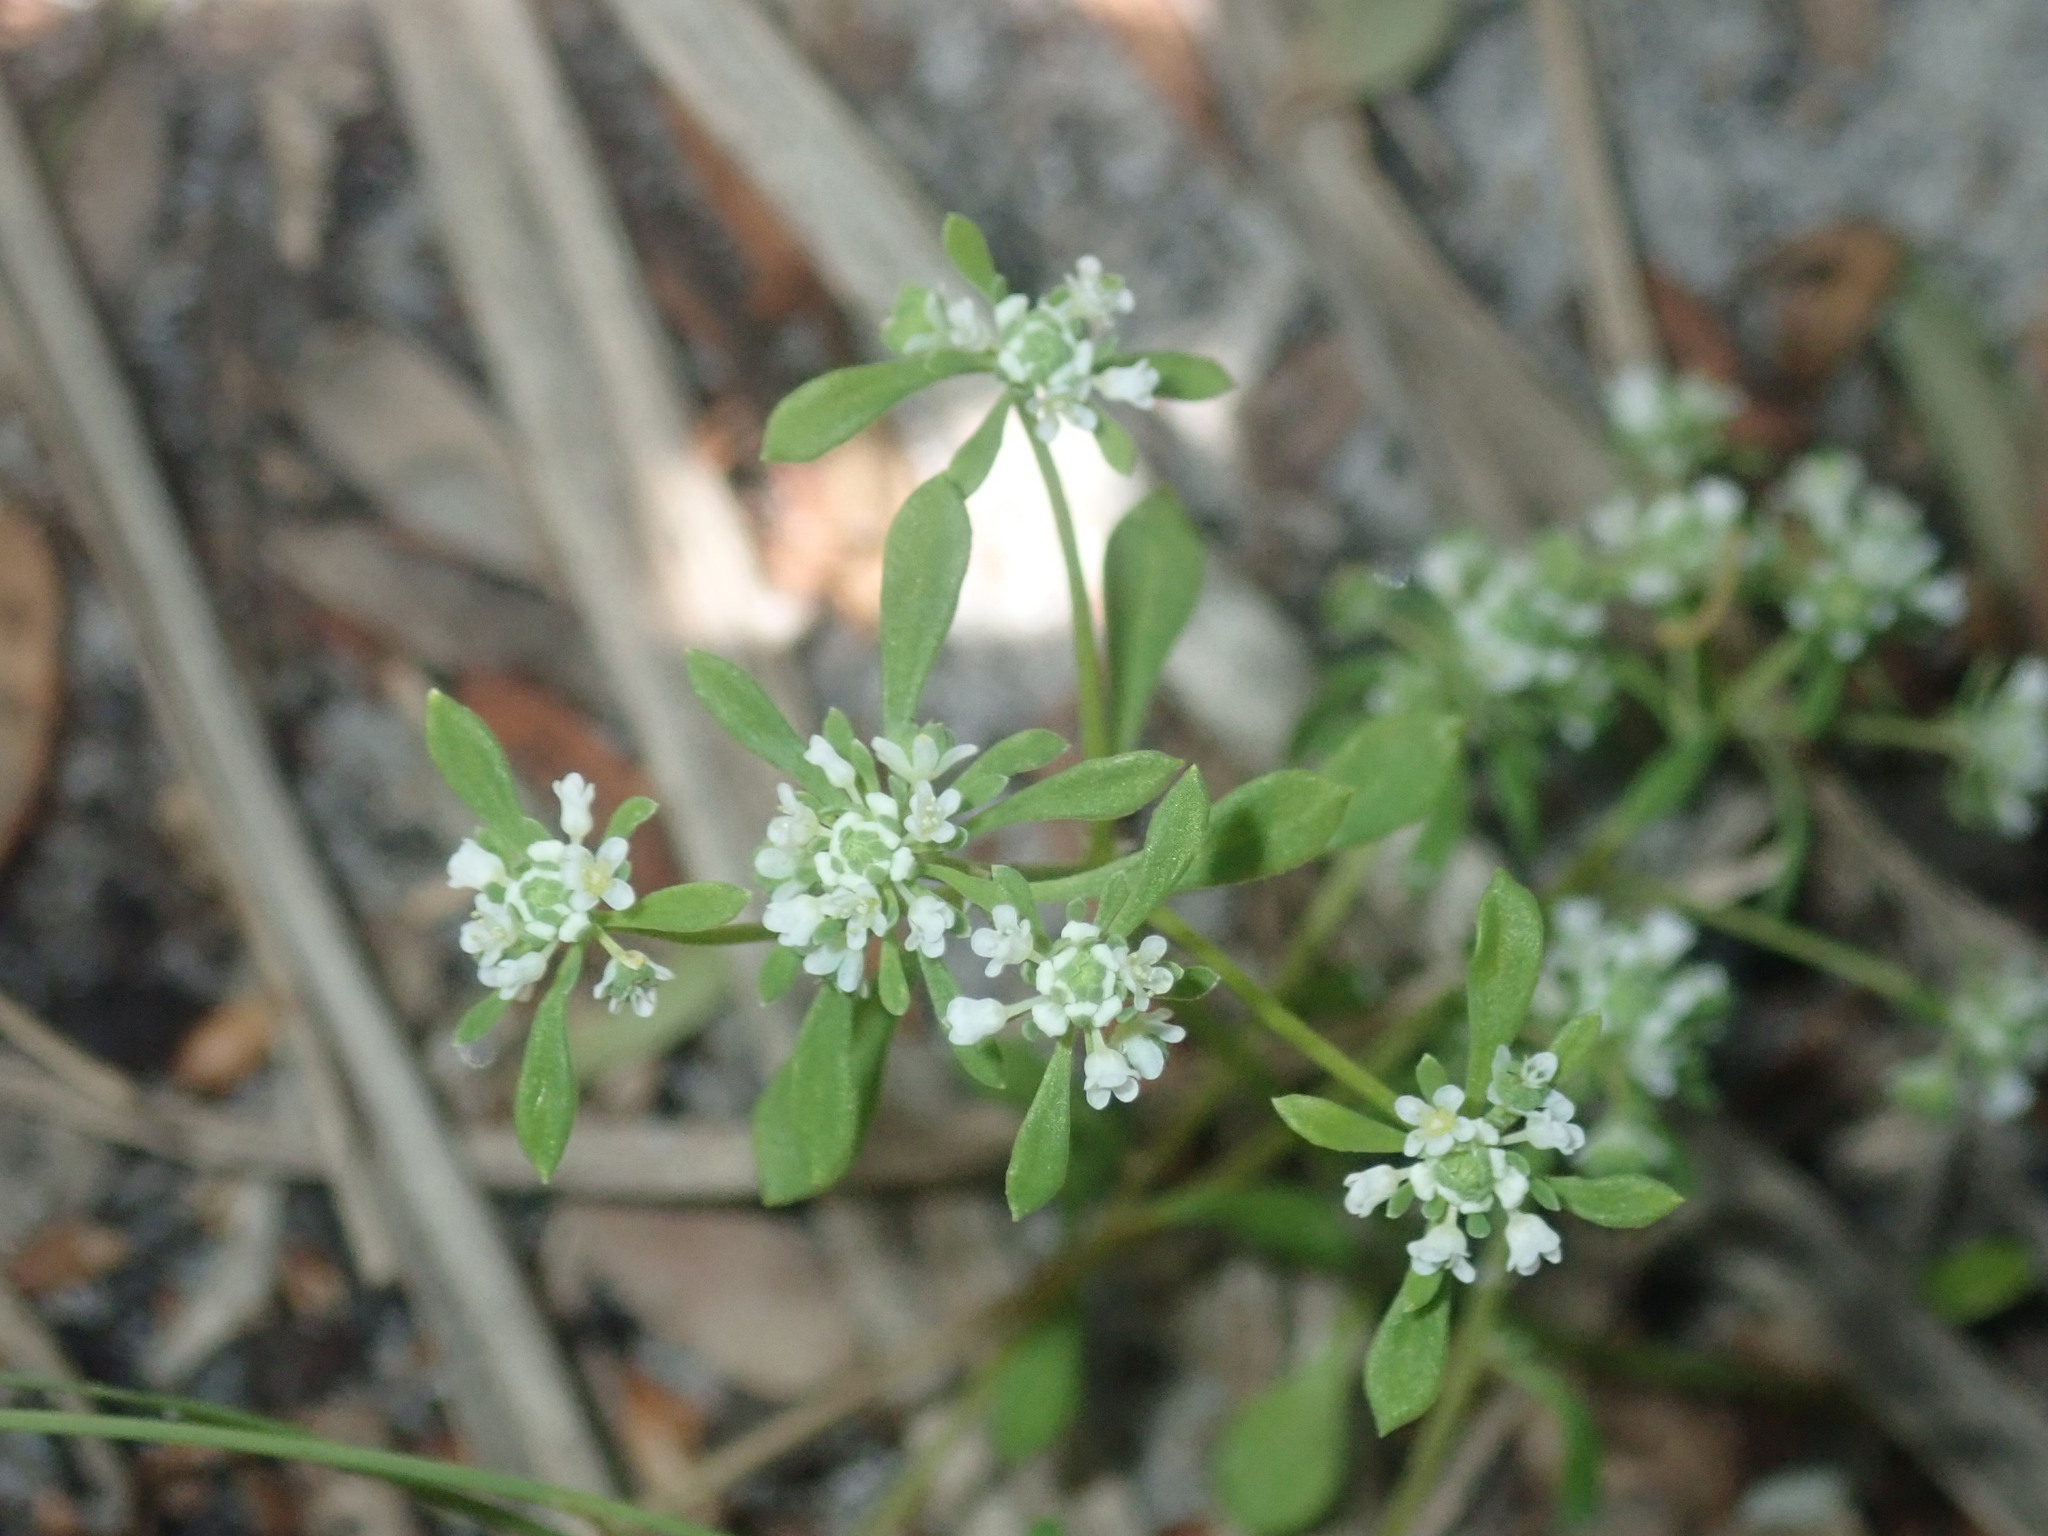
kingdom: Plantae
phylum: Tracheophyta
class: Magnoliopsida
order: Malpighiales
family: Phyllanthaceae
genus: Poranthera
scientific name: Poranthera microphylla
